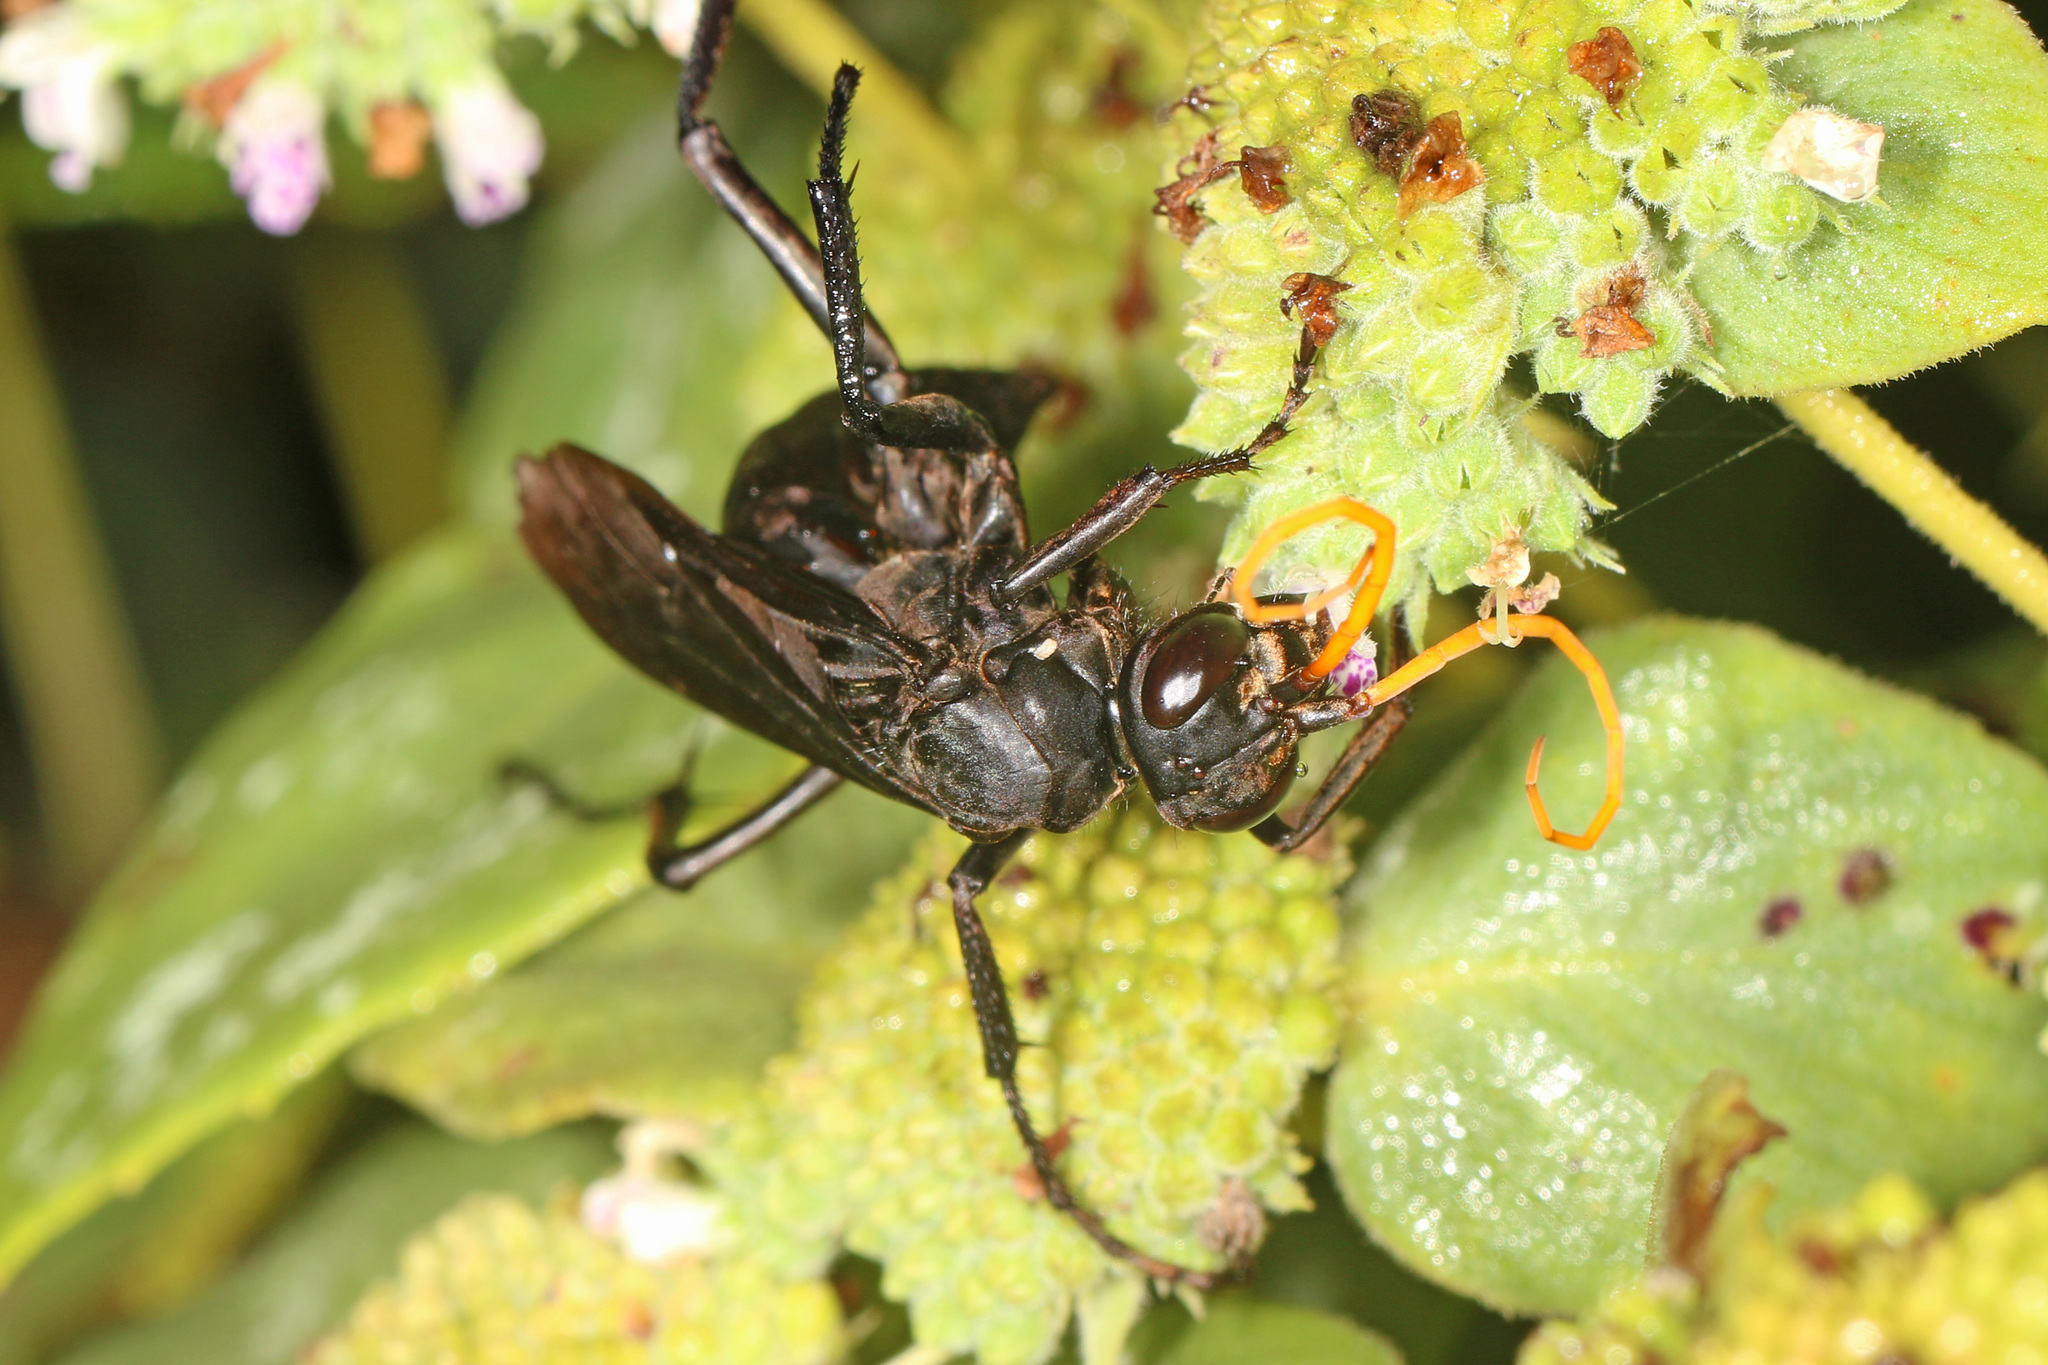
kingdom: Animalia
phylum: Arthropoda
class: Insecta
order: Hymenoptera
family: Pompilidae
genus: Entypus
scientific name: Entypus fulvicornis
